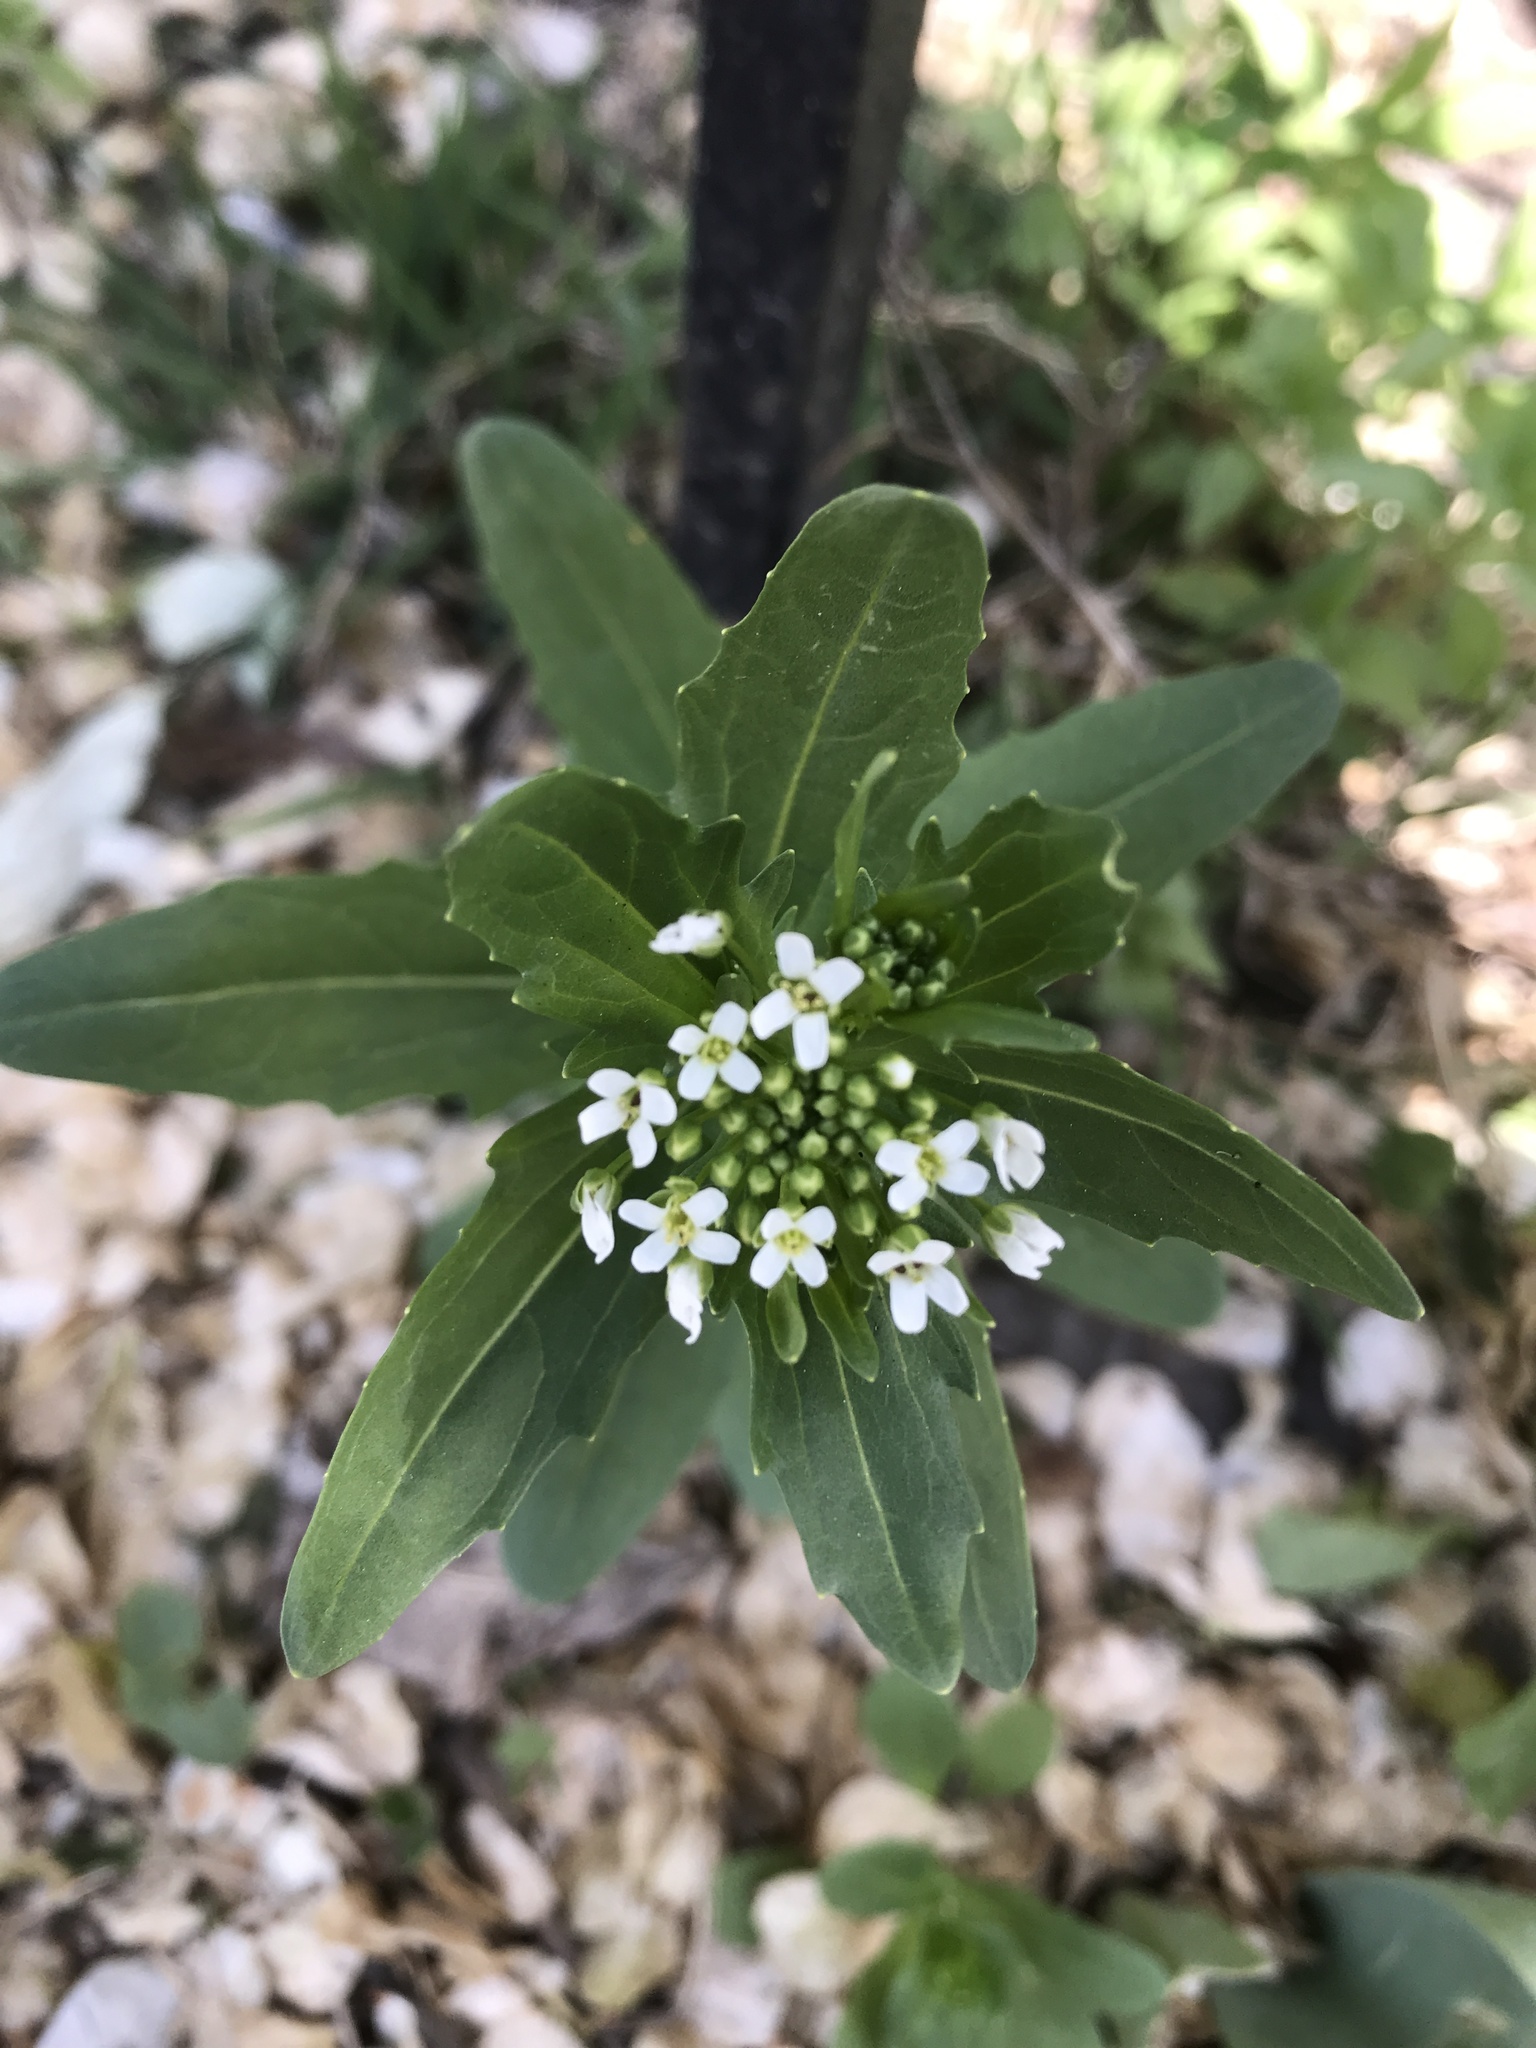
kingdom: Plantae
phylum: Tracheophyta
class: Magnoliopsida
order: Brassicales
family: Brassicaceae
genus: Thlaspi
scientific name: Thlaspi arvense
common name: Field pennycress
